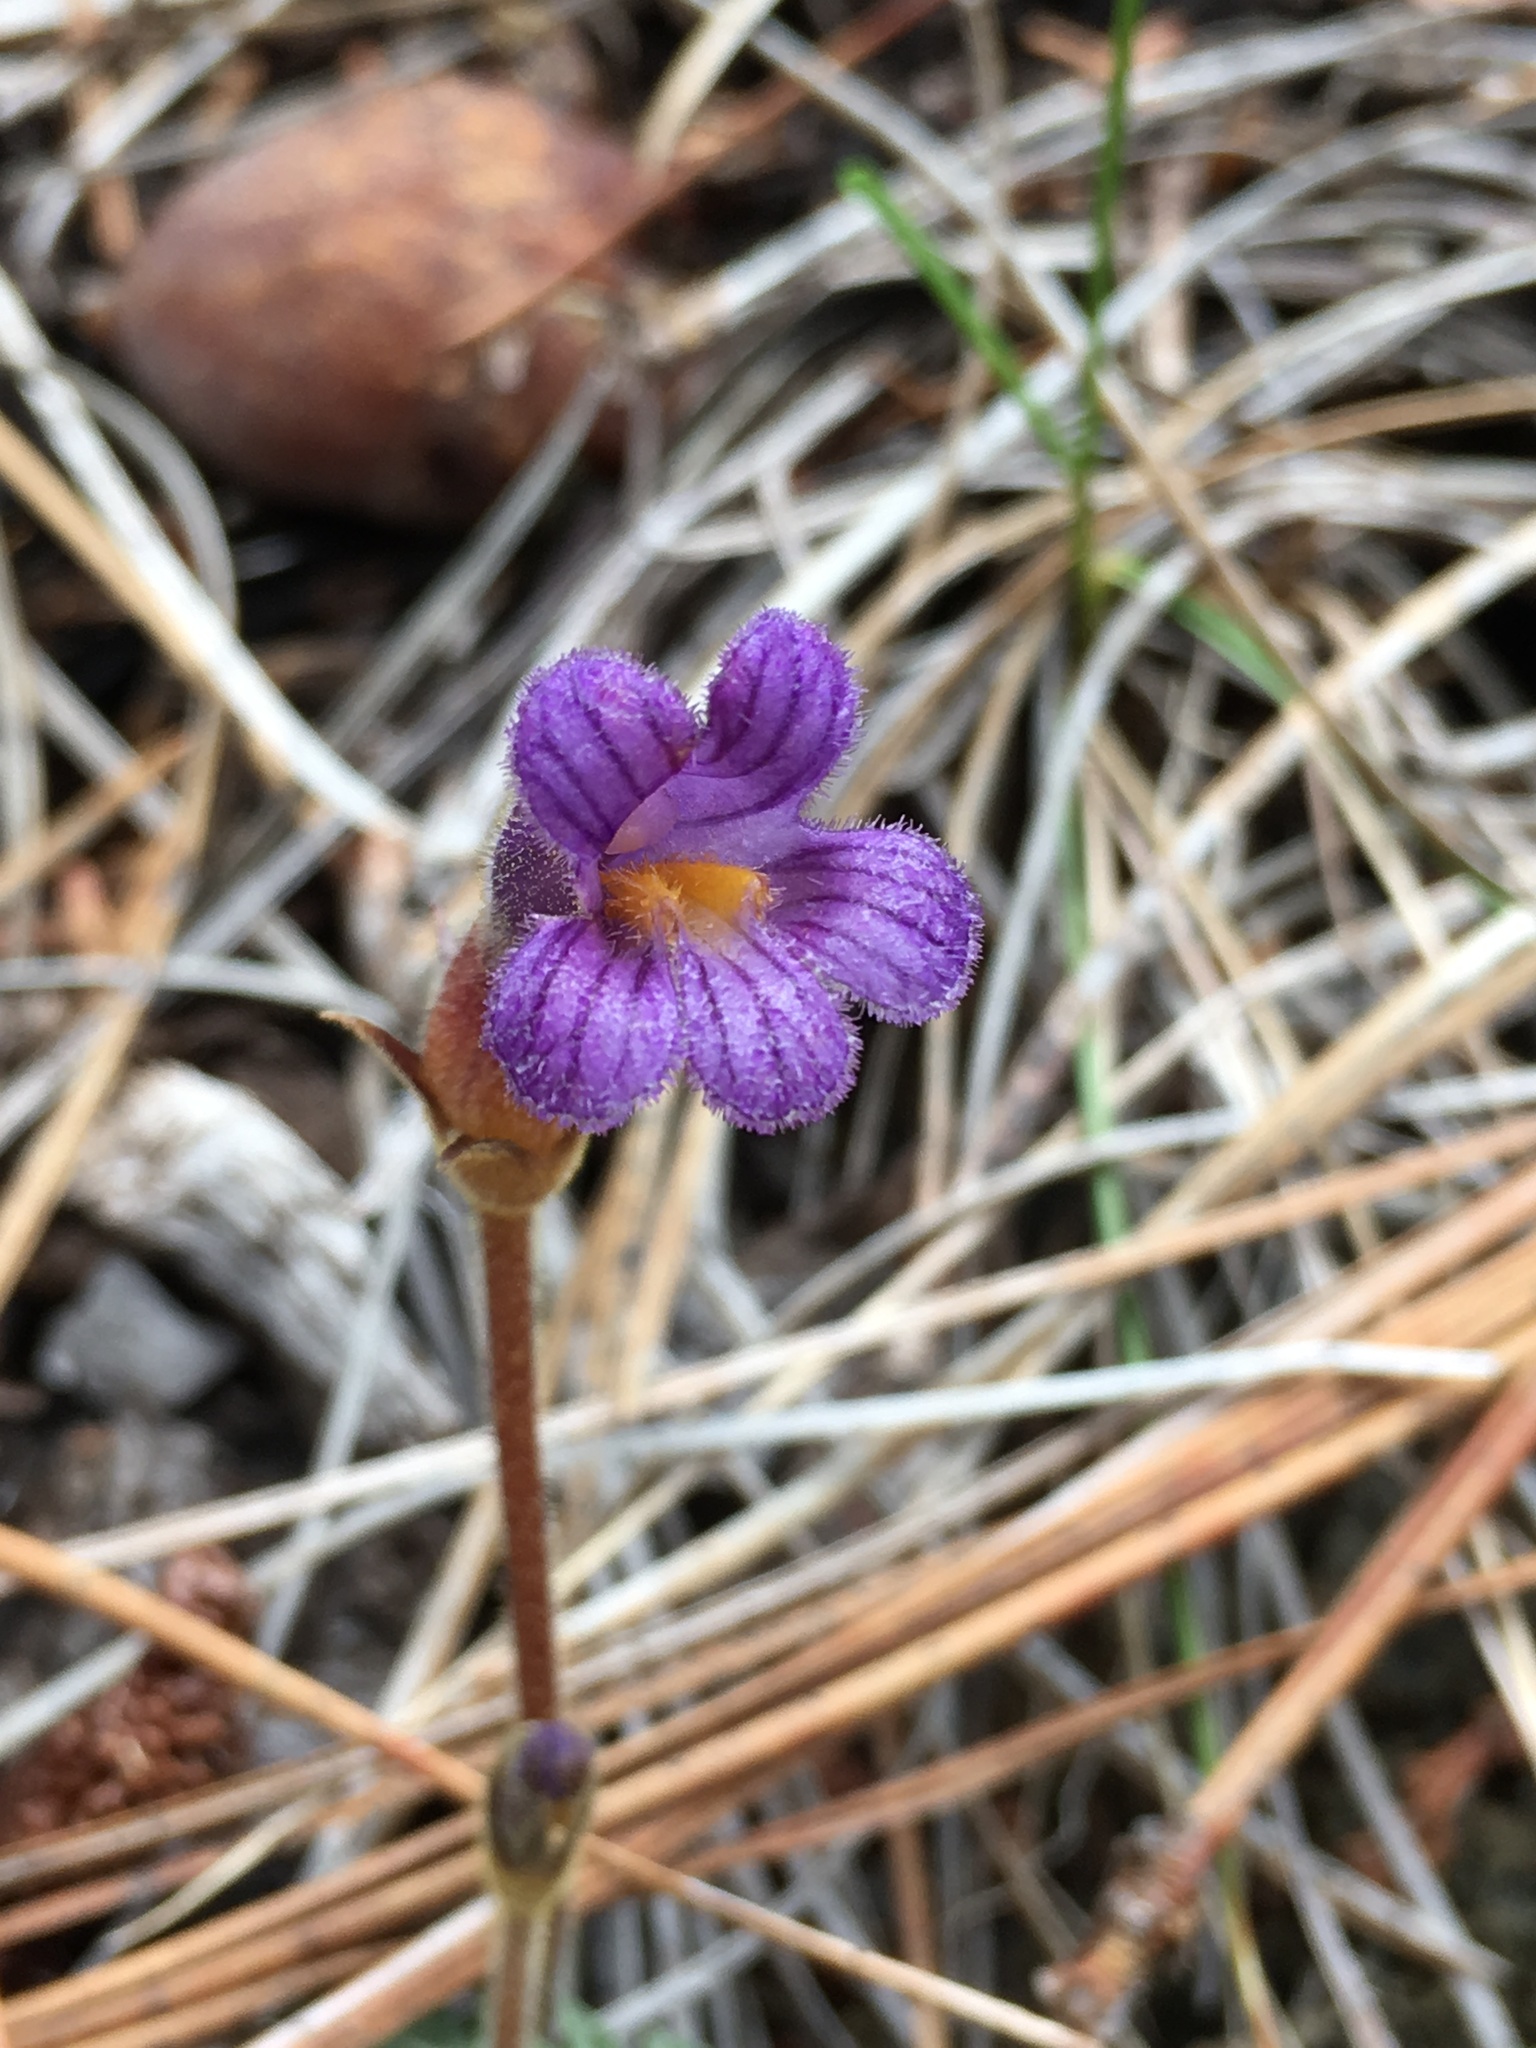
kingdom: Plantae
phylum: Tracheophyta
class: Magnoliopsida
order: Lamiales
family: Orobanchaceae
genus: Aphyllon
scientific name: Aphyllon uniflorum
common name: One-flowered broomrape
